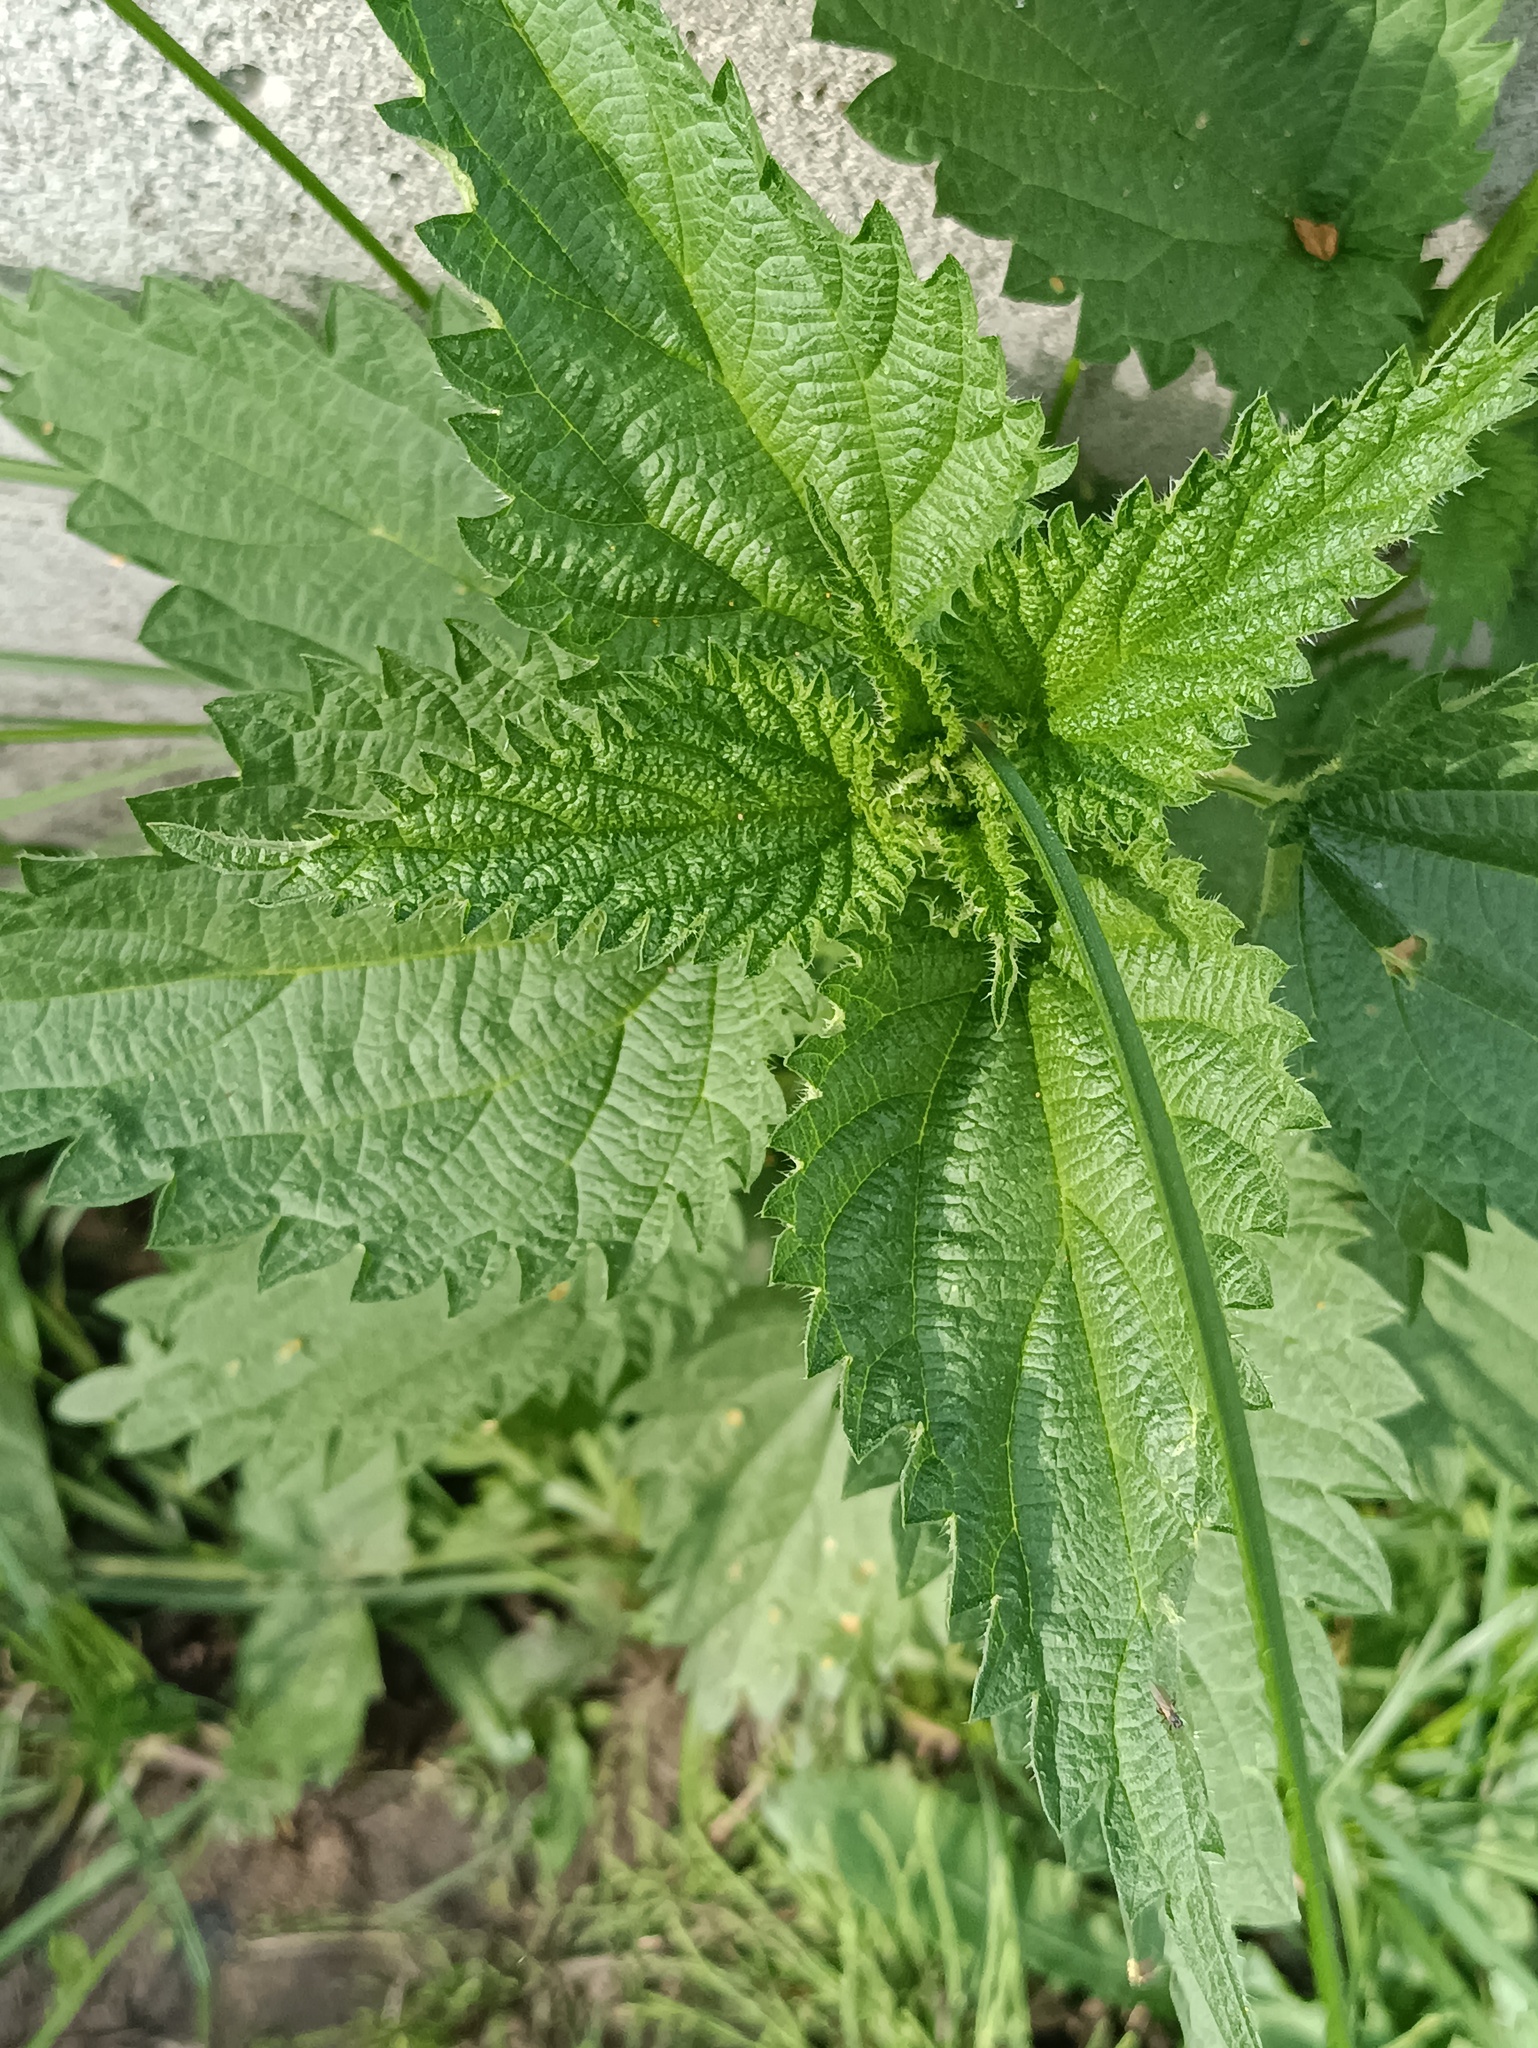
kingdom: Plantae
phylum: Tracheophyta
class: Magnoliopsida
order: Rosales
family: Urticaceae
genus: Urtica
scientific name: Urtica dioica
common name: Common nettle
